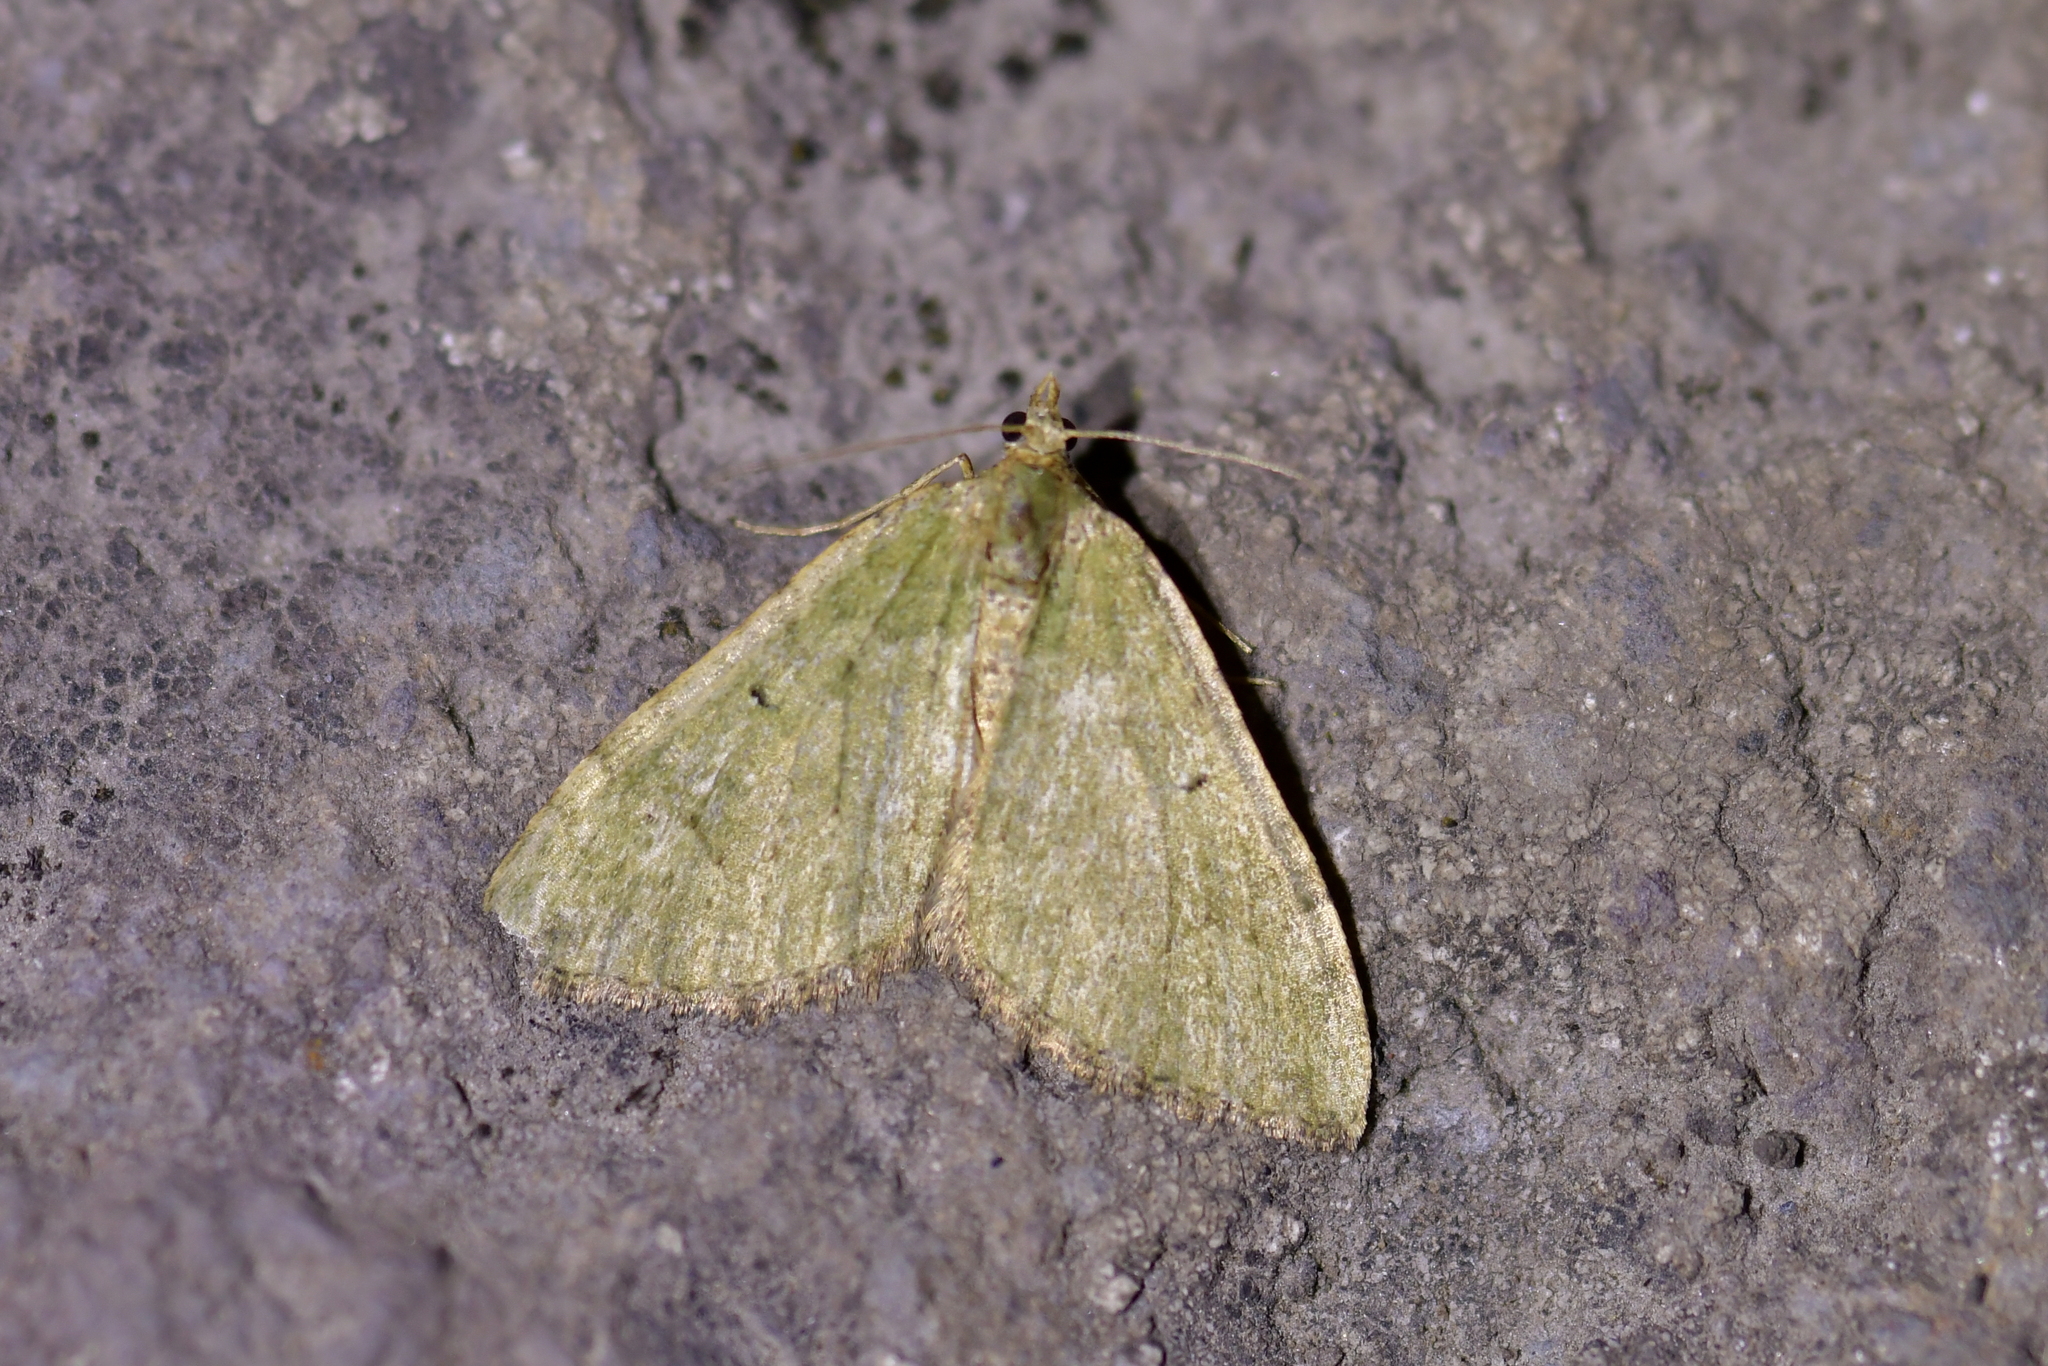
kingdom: Animalia
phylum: Arthropoda
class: Insecta
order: Lepidoptera
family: Geometridae
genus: Epyaxa
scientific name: Epyaxa rosearia
